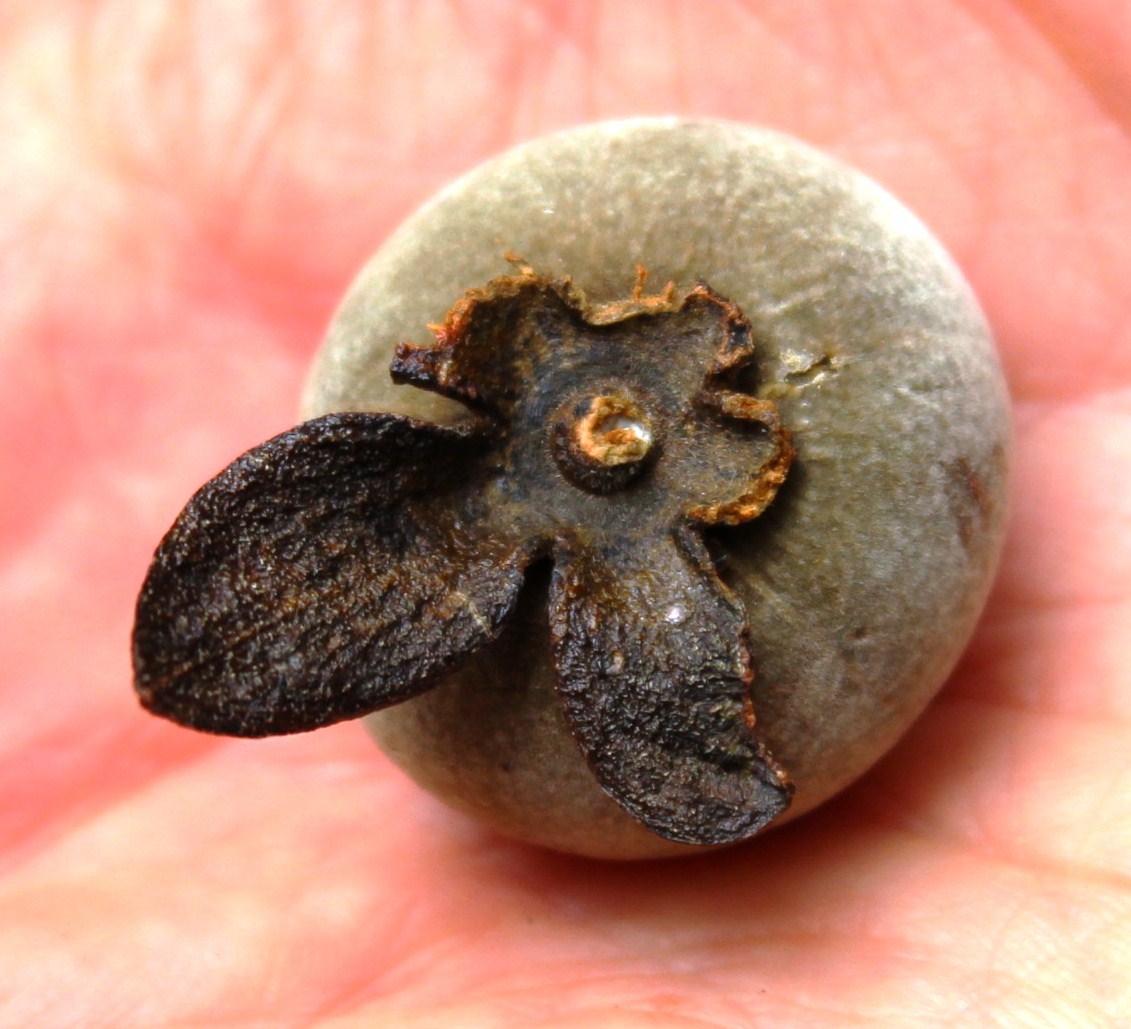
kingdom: Plantae
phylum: Tracheophyta
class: Magnoliopsida
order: Ericales
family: Ebenaceae
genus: Diospyros
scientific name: Diospyros dichrophylla
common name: Common star-apple
